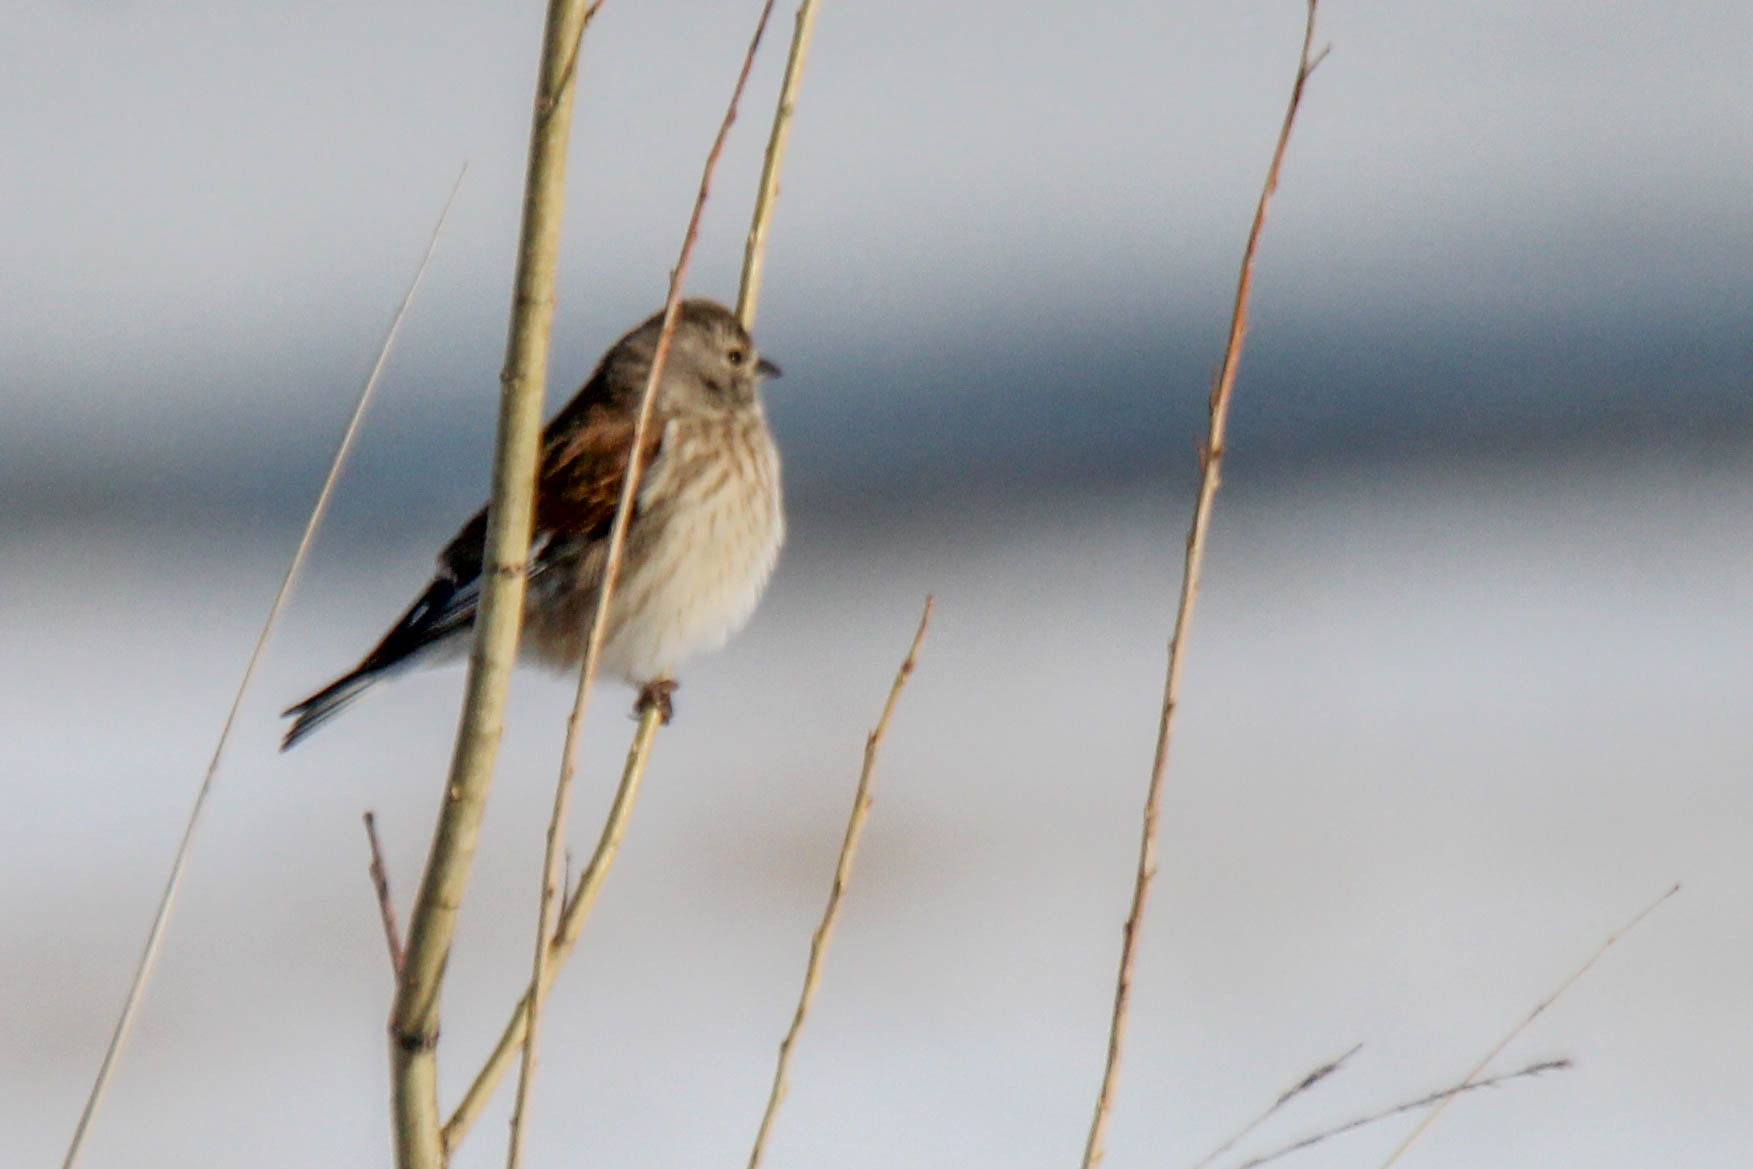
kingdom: Animalia
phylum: Chordata
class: Aves
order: Passeriformes
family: Fringillidae
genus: Linaria
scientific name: Linaria cannabina
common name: Common linnet
